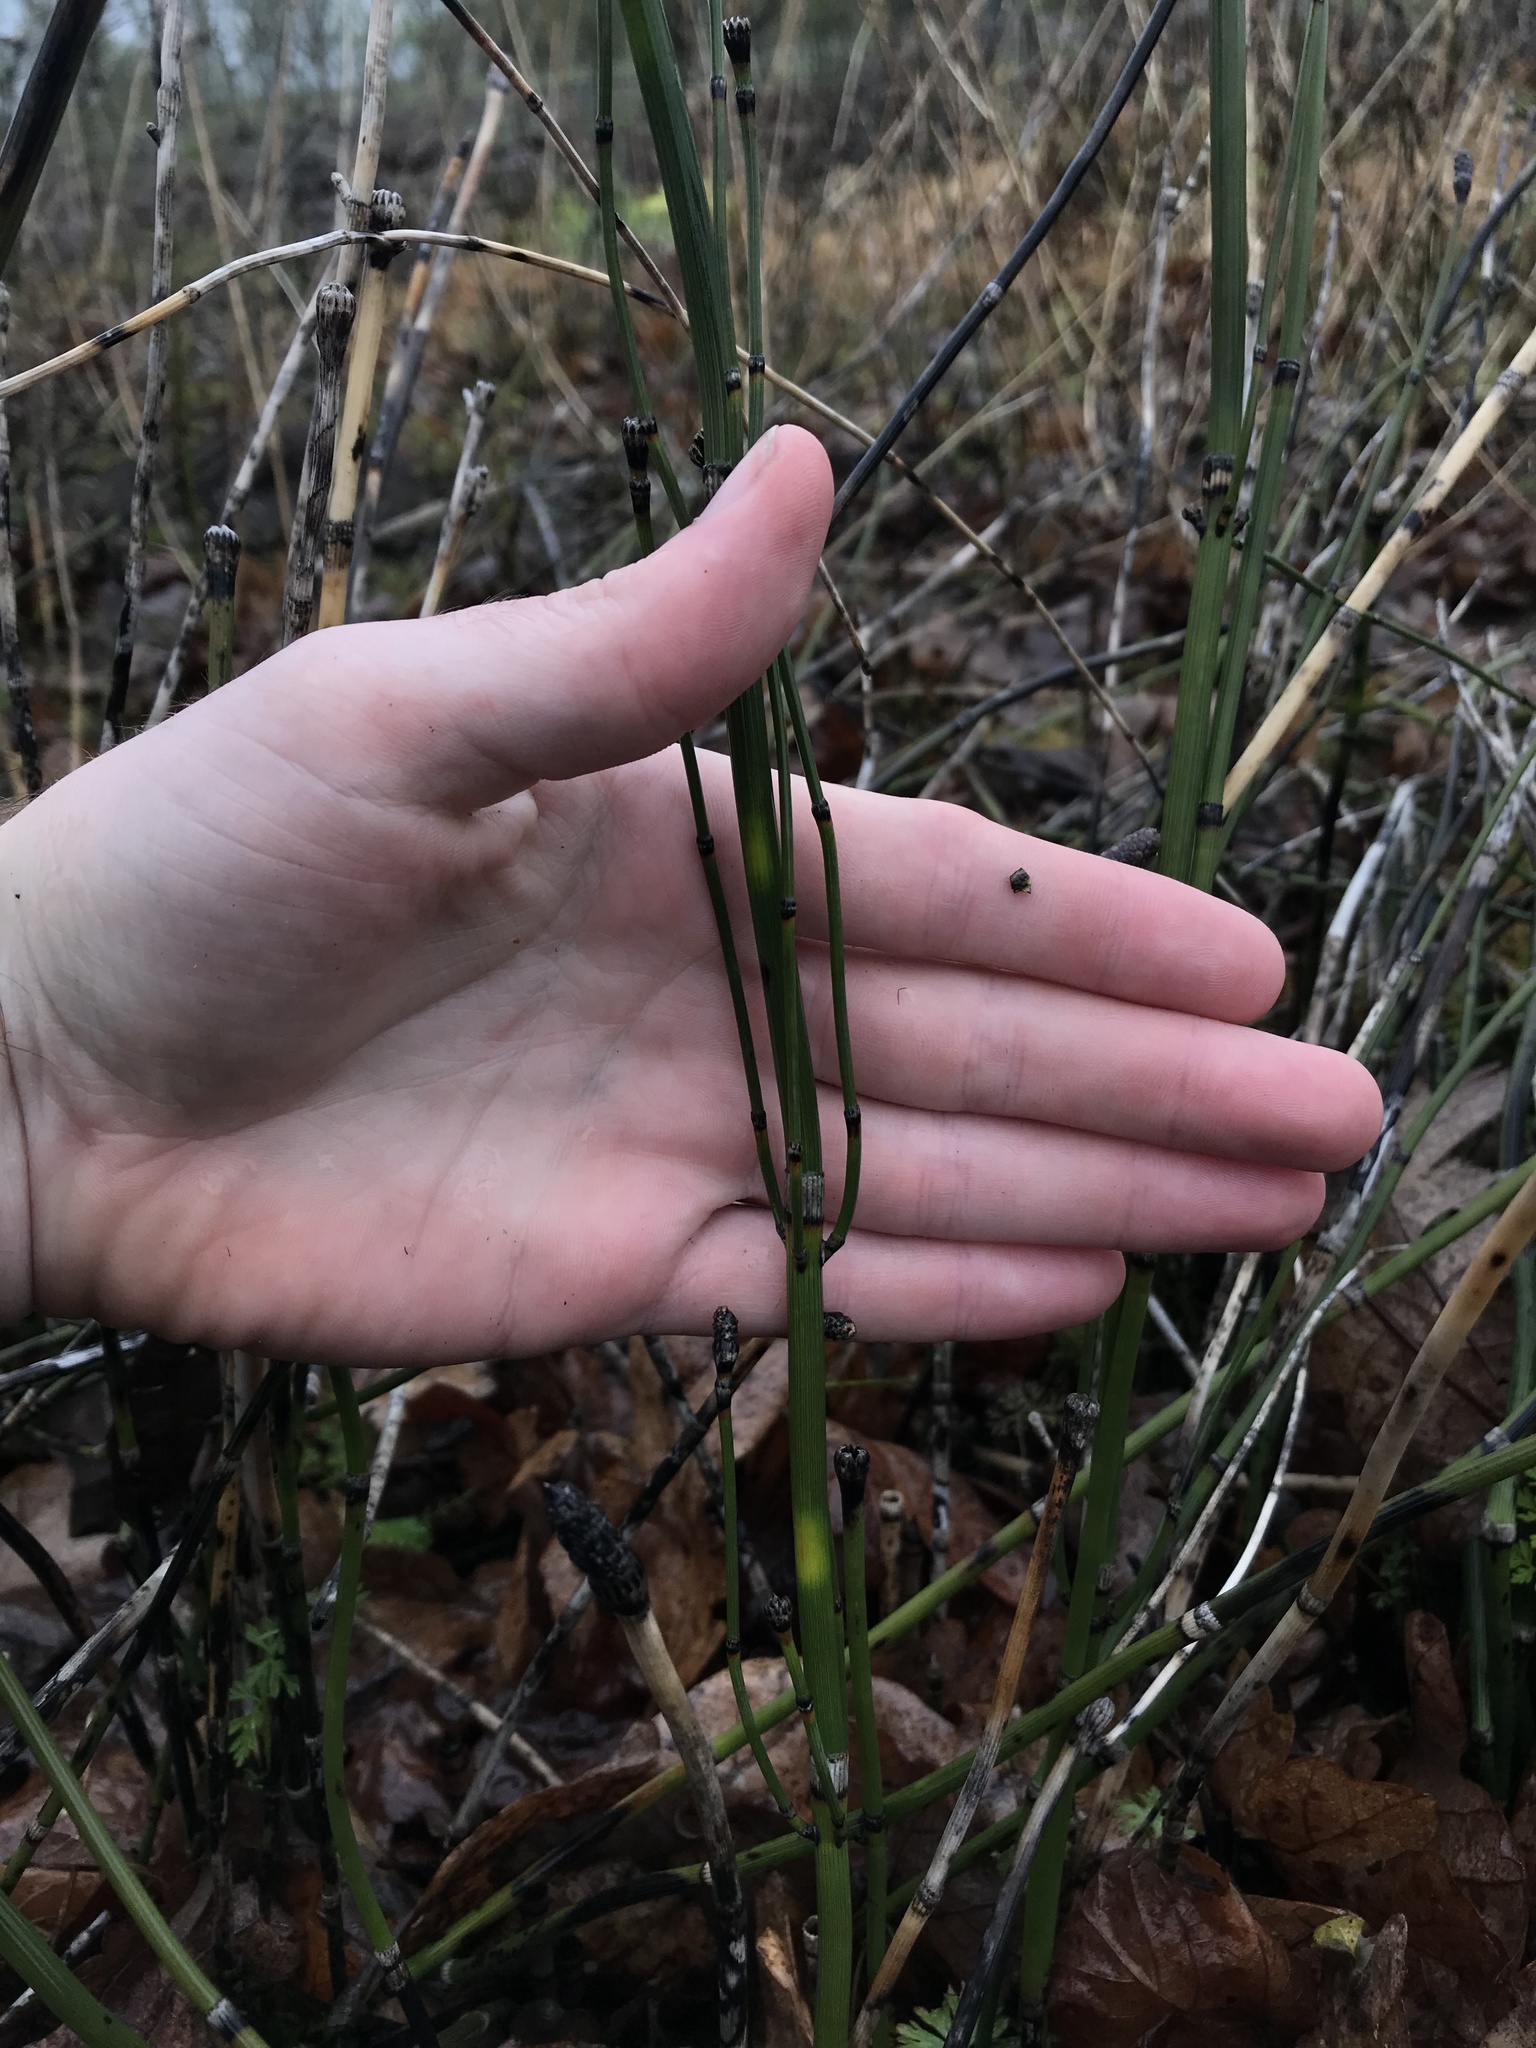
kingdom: Plantae
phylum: Tracheophyta
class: Polypodiopsida
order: Equisetales
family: Equisetaceae
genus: Equisetum
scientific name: Equisetum ferrissii
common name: Ferriss' horsetail
